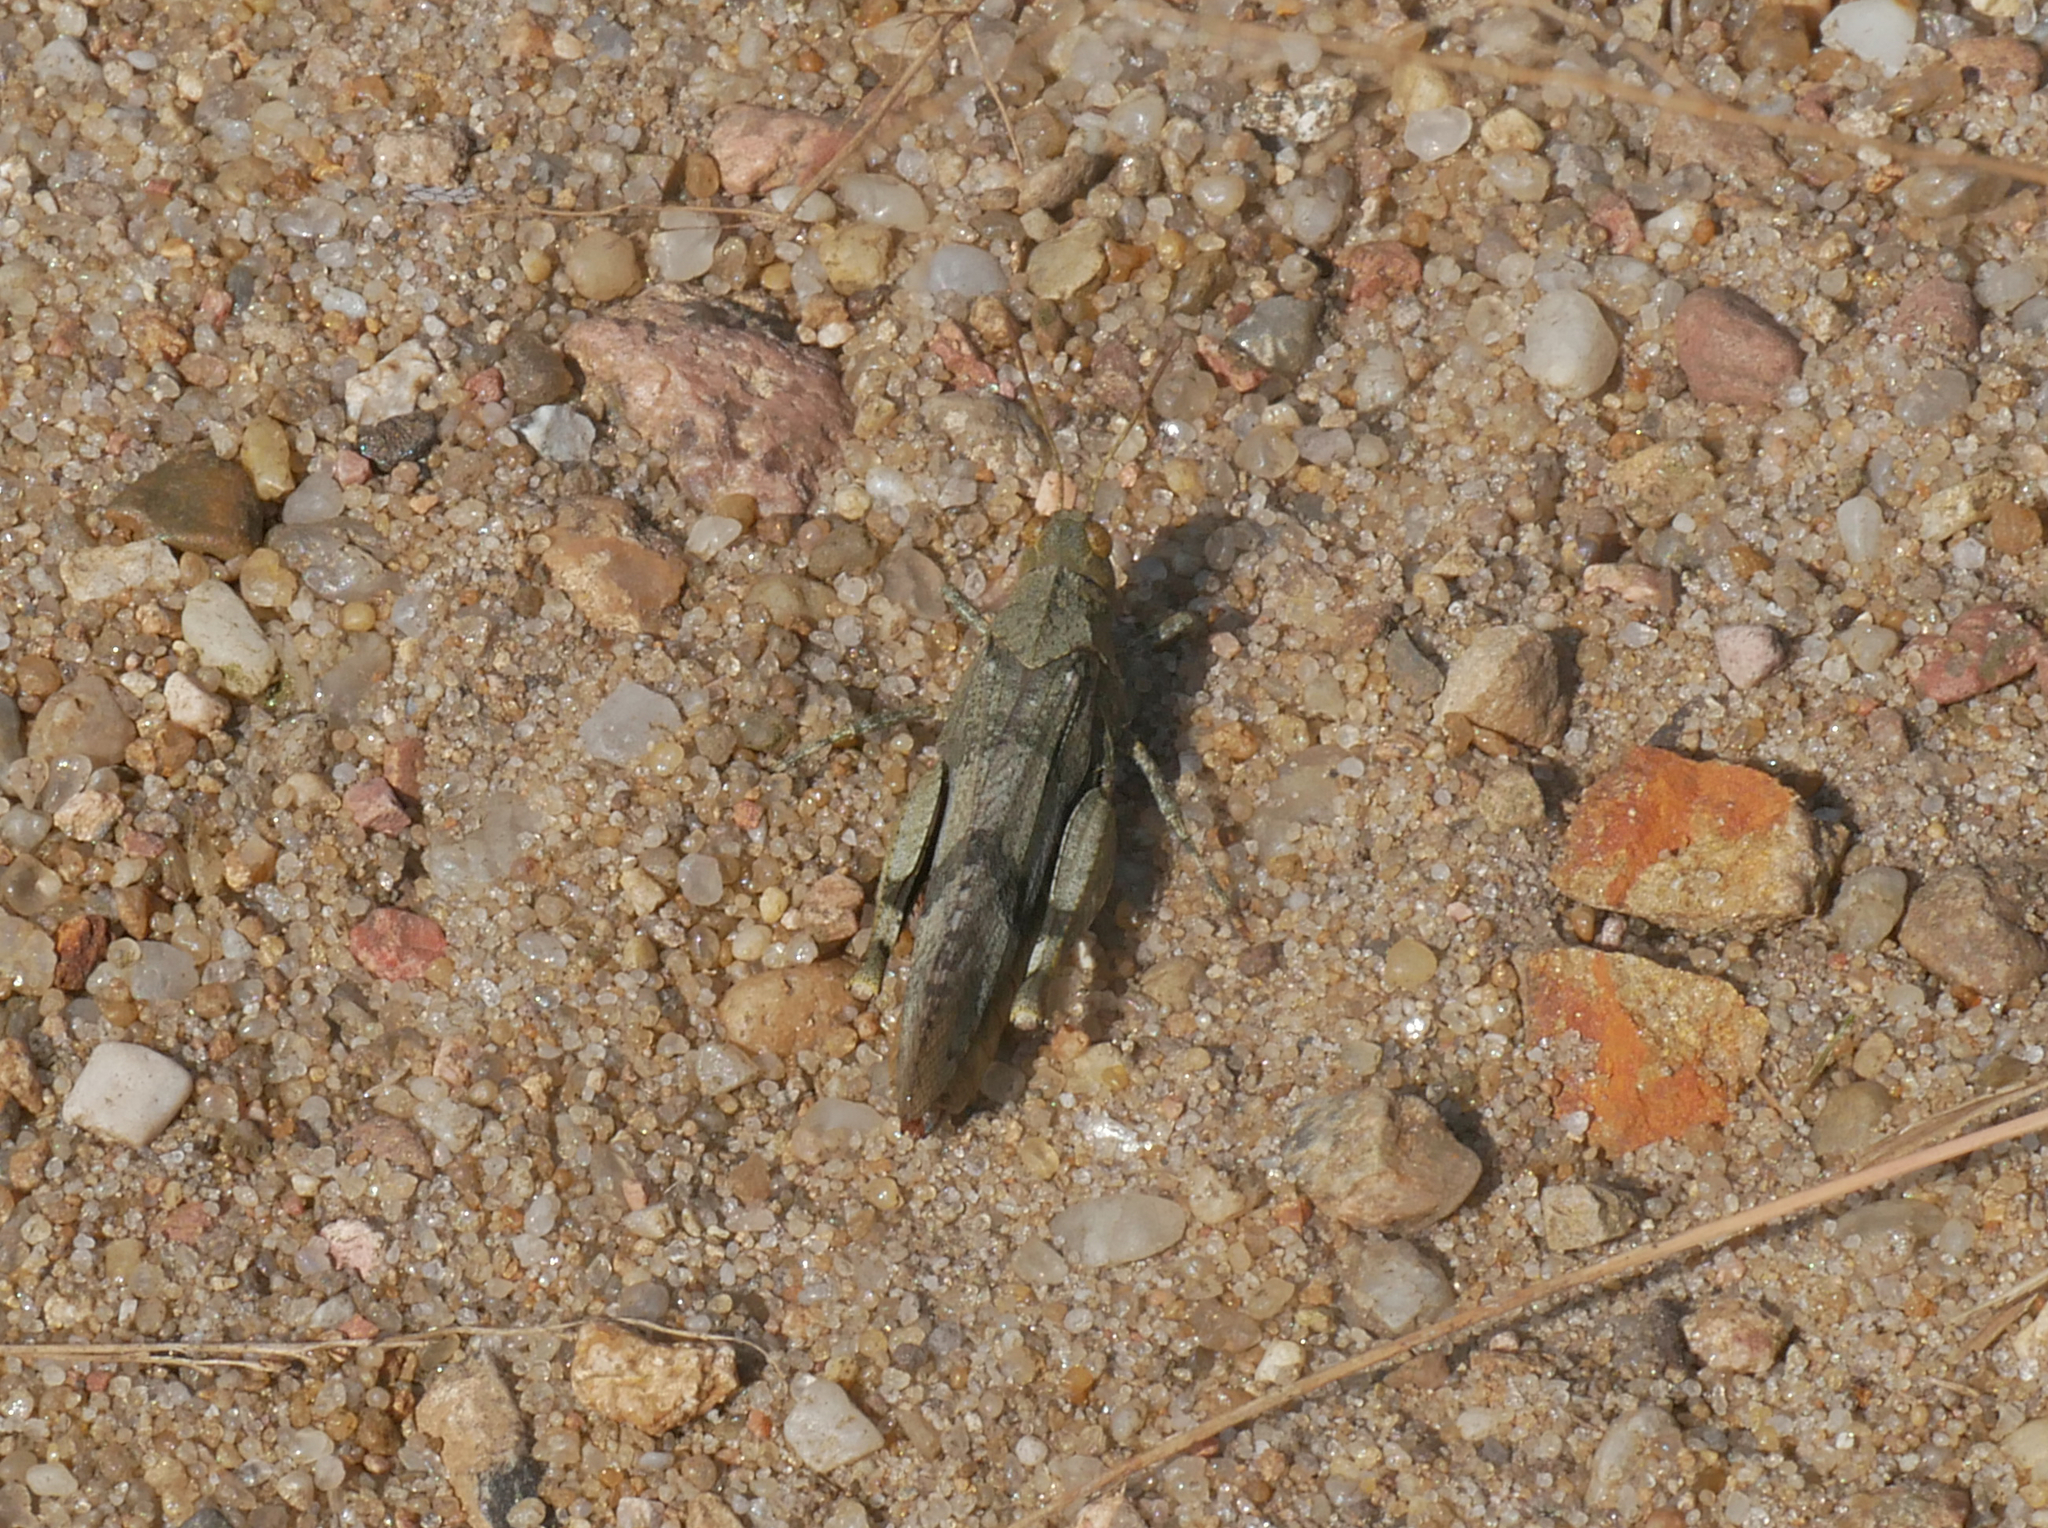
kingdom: Animalia
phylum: Arthropoda
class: Insecta
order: Orthoptera
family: Acrididae
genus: Oedipoda
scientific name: Oedipoda caerulescens
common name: Blue-winged grasshopper
